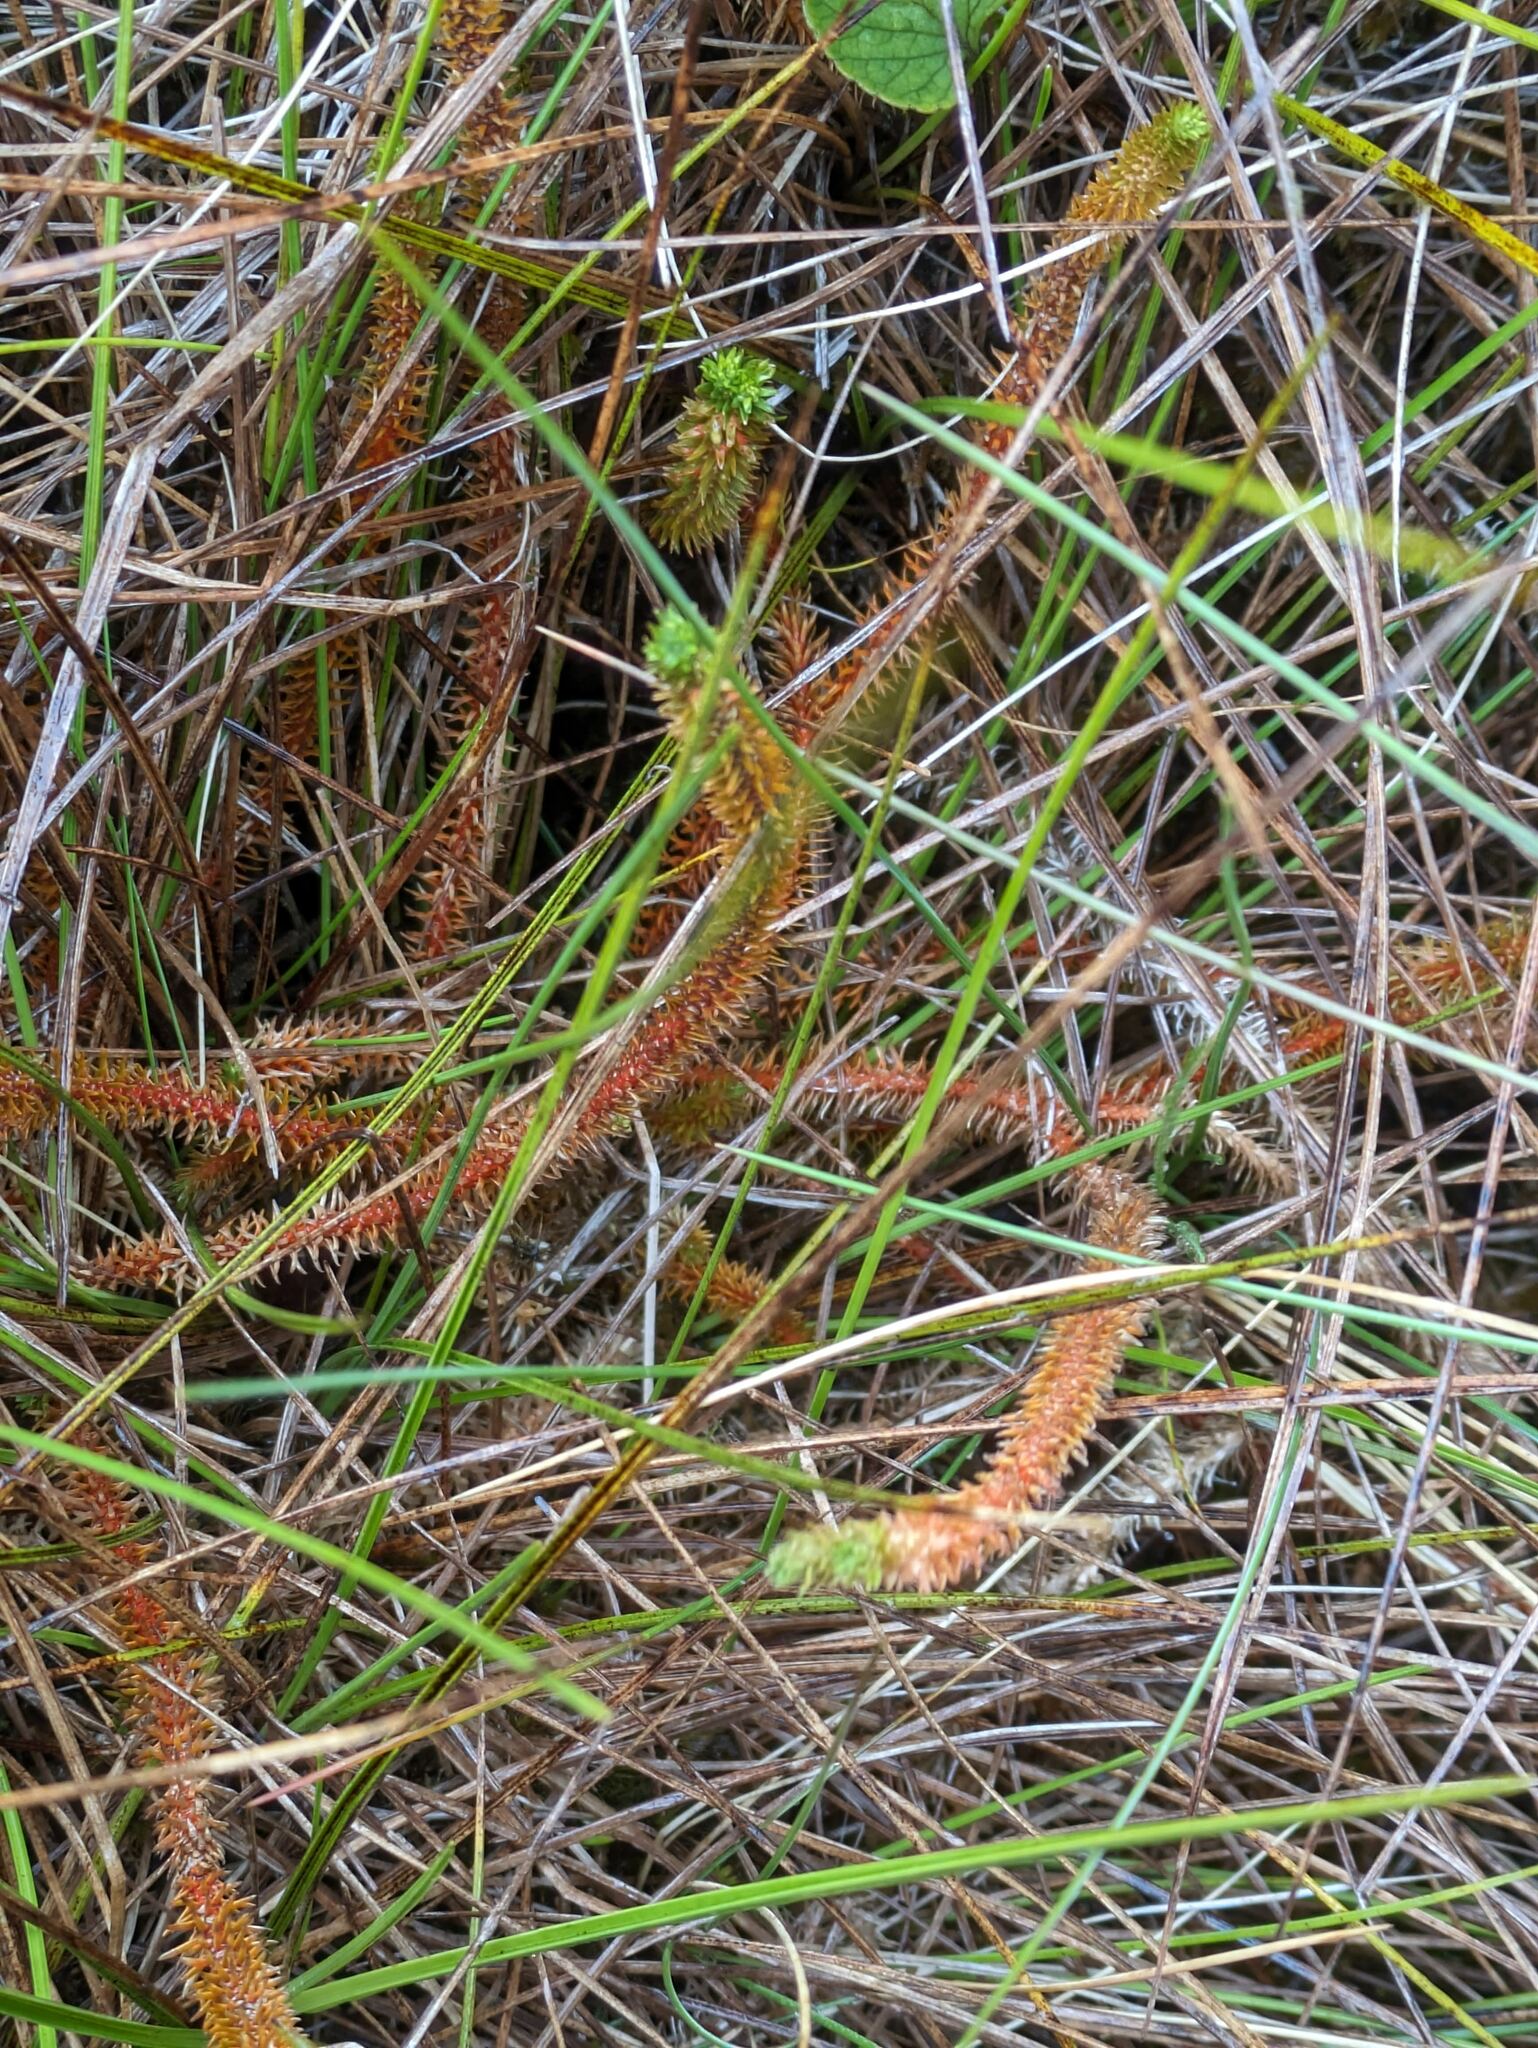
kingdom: Plantae
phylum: Tracheophyta
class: Lycopodiopsida
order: Lycopodiales
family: Lycopodiaceae
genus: Huperzia
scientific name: Huperzia erubescens
